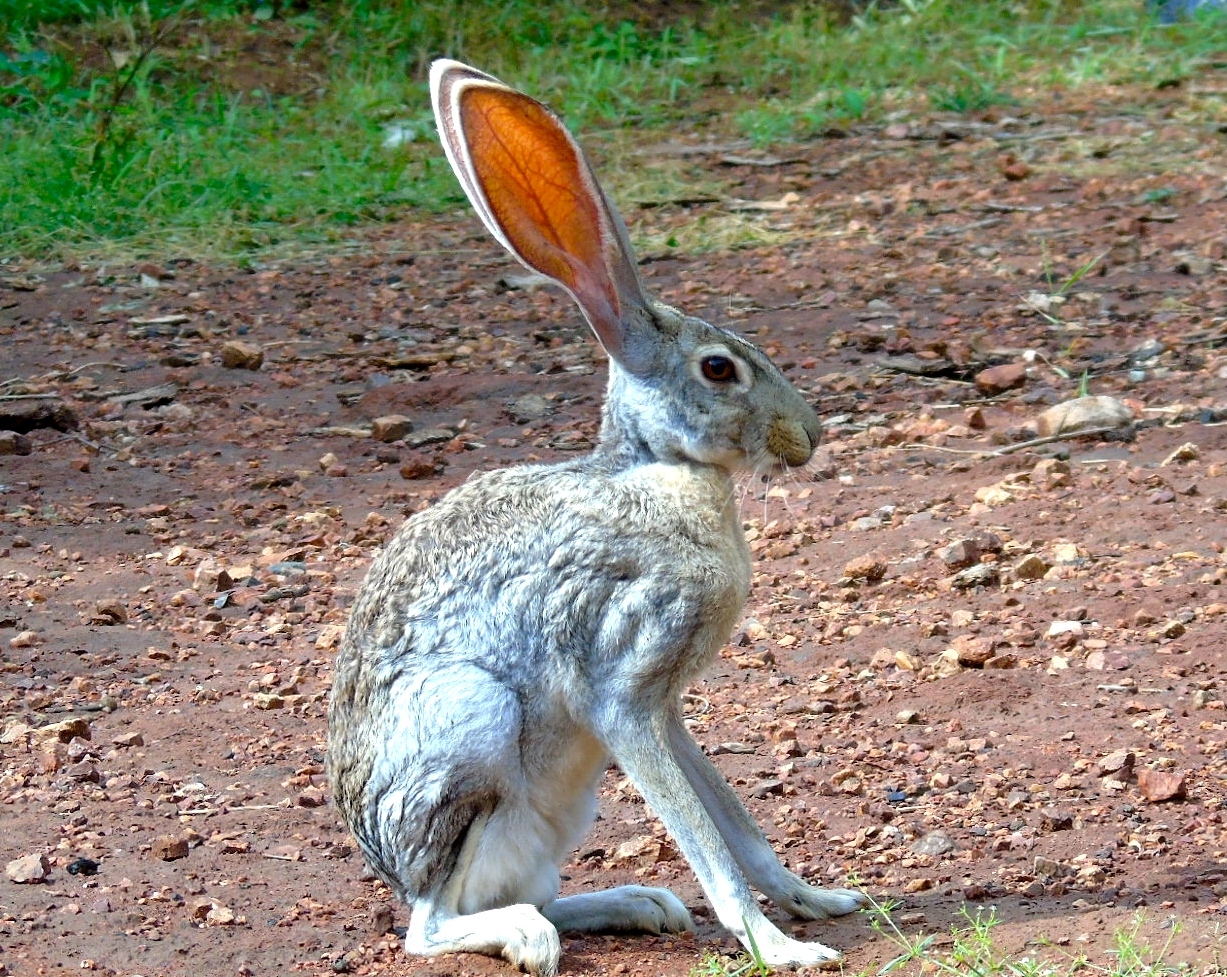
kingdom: Animalia
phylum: Chordata
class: Mammalia
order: Lagomorpha
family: Leporidae
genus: Lepus
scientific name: Lepus alleni
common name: Antelope jackrabbit
